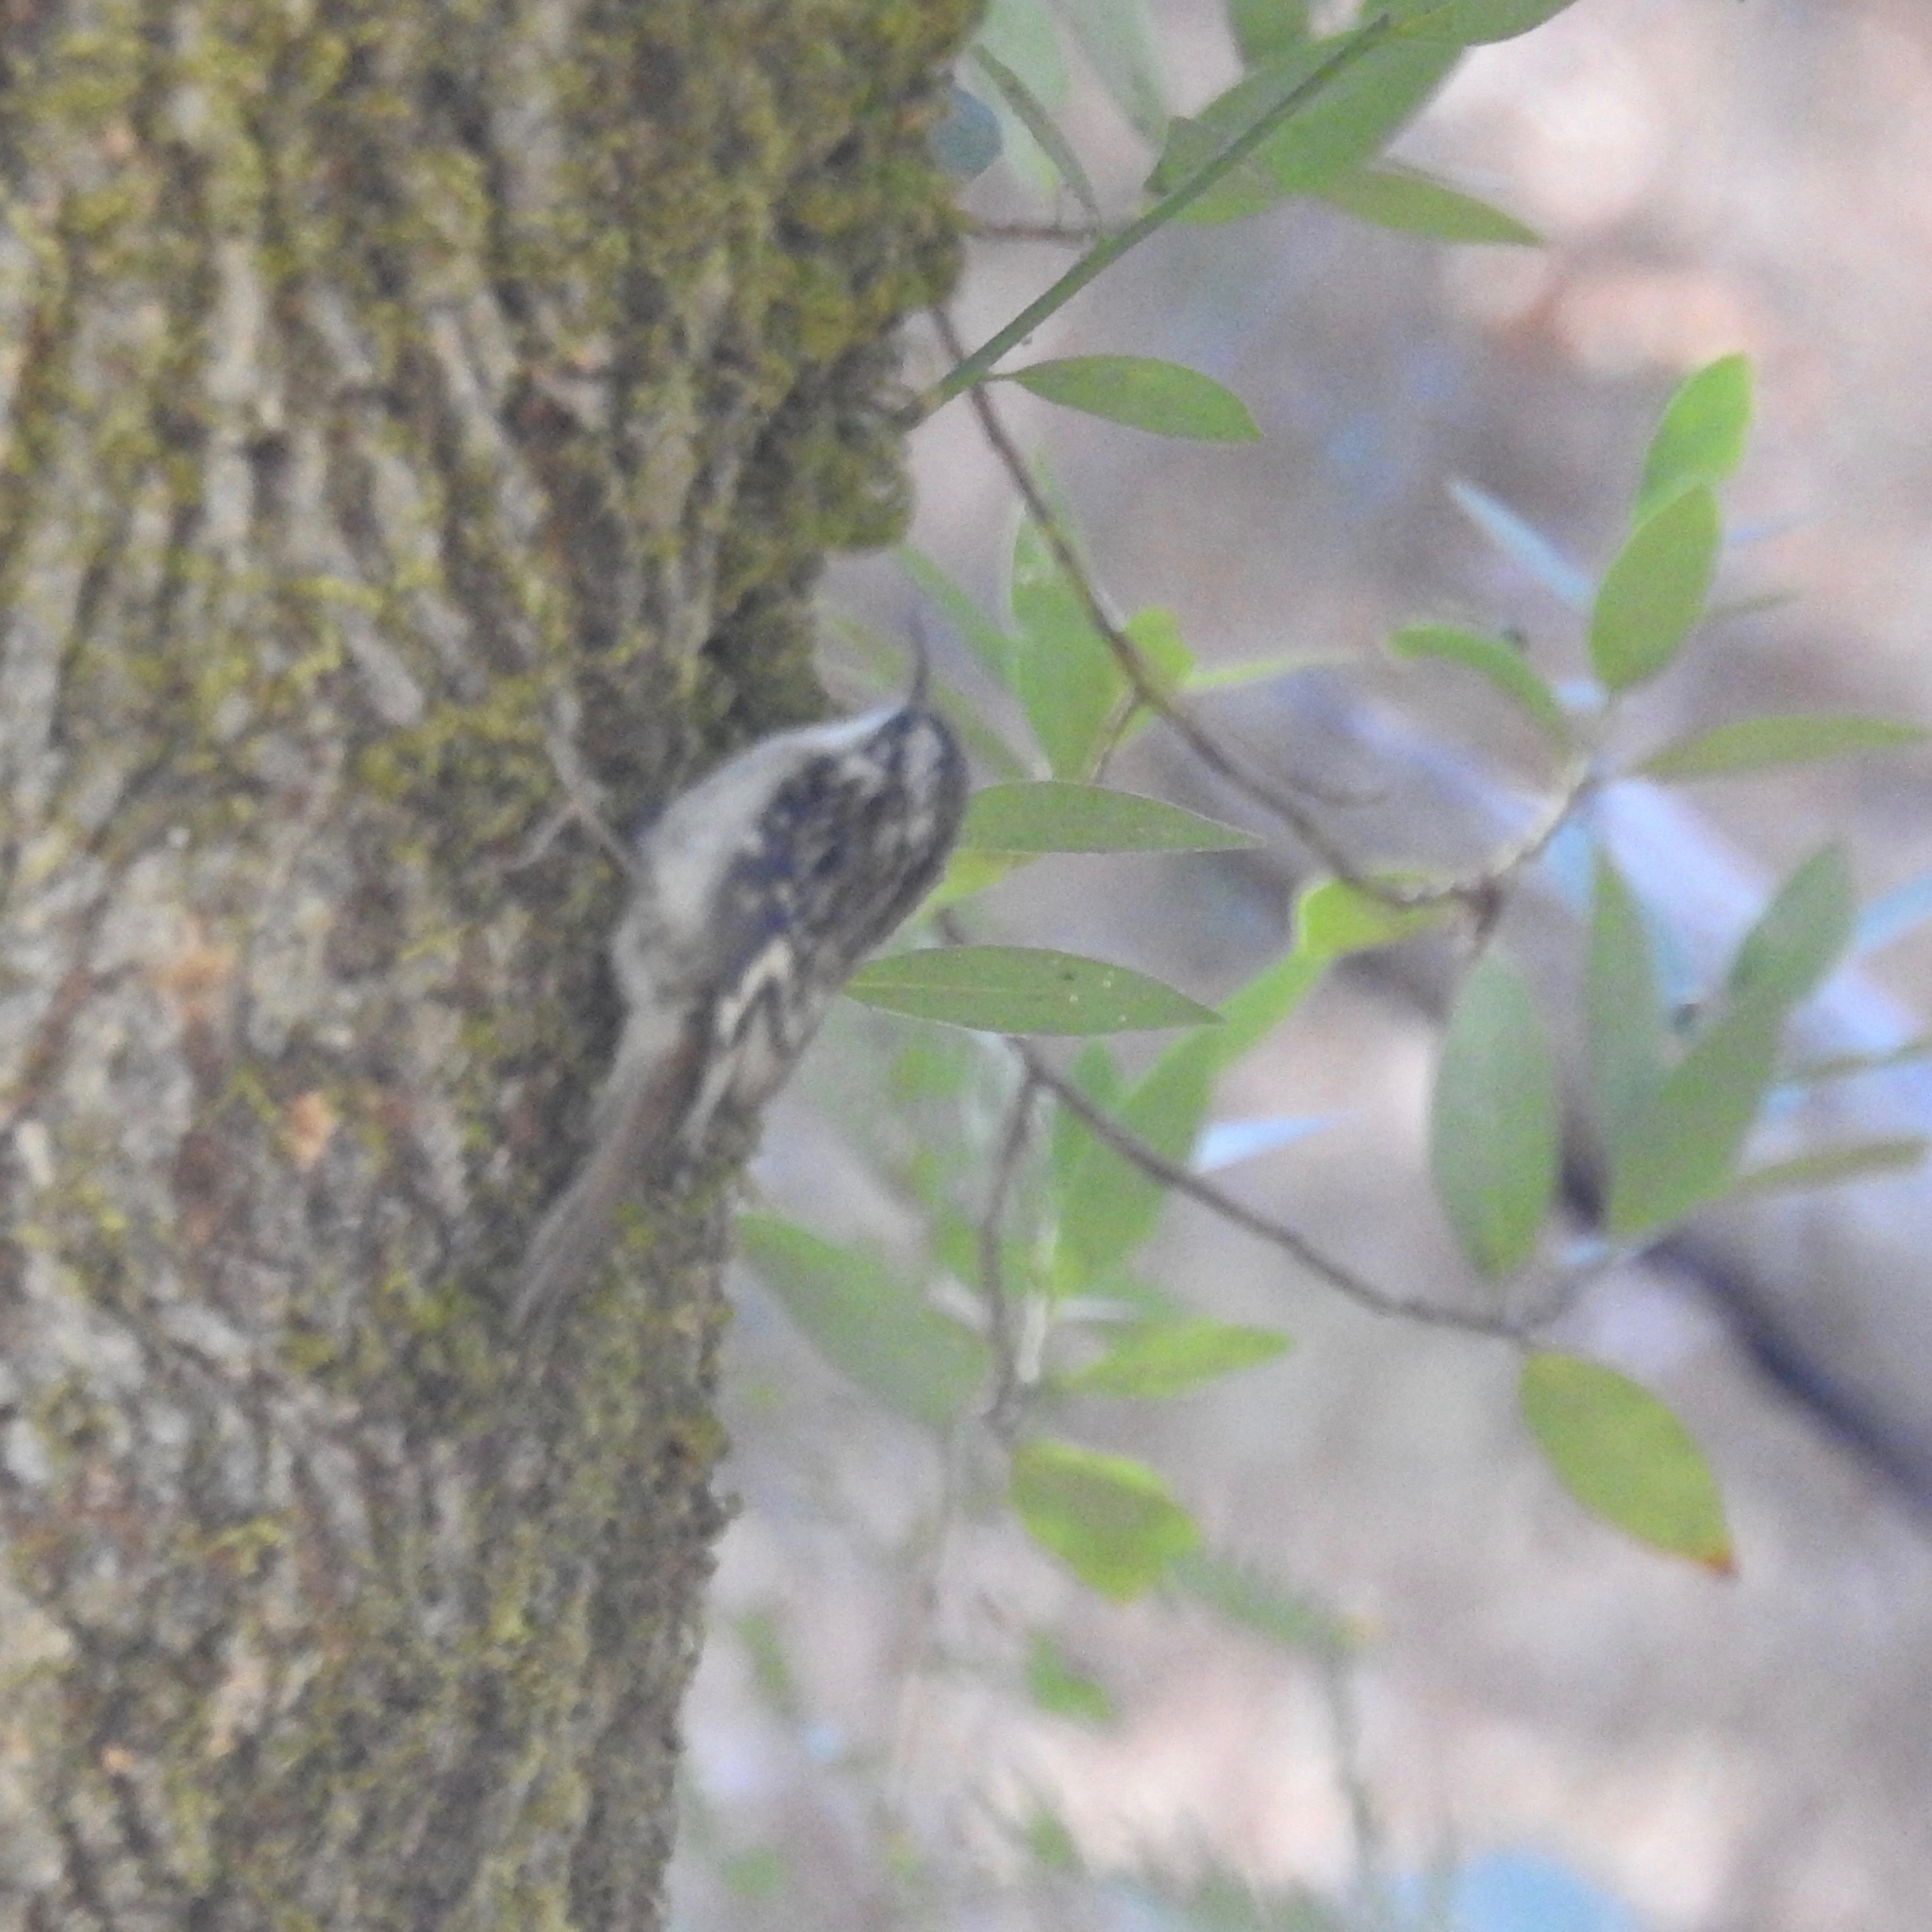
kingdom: Animalia
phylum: Chordata
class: Aves
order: Passeriformes
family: Certhiidae
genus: Certhia
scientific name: Certhia americana
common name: Brown creeper
